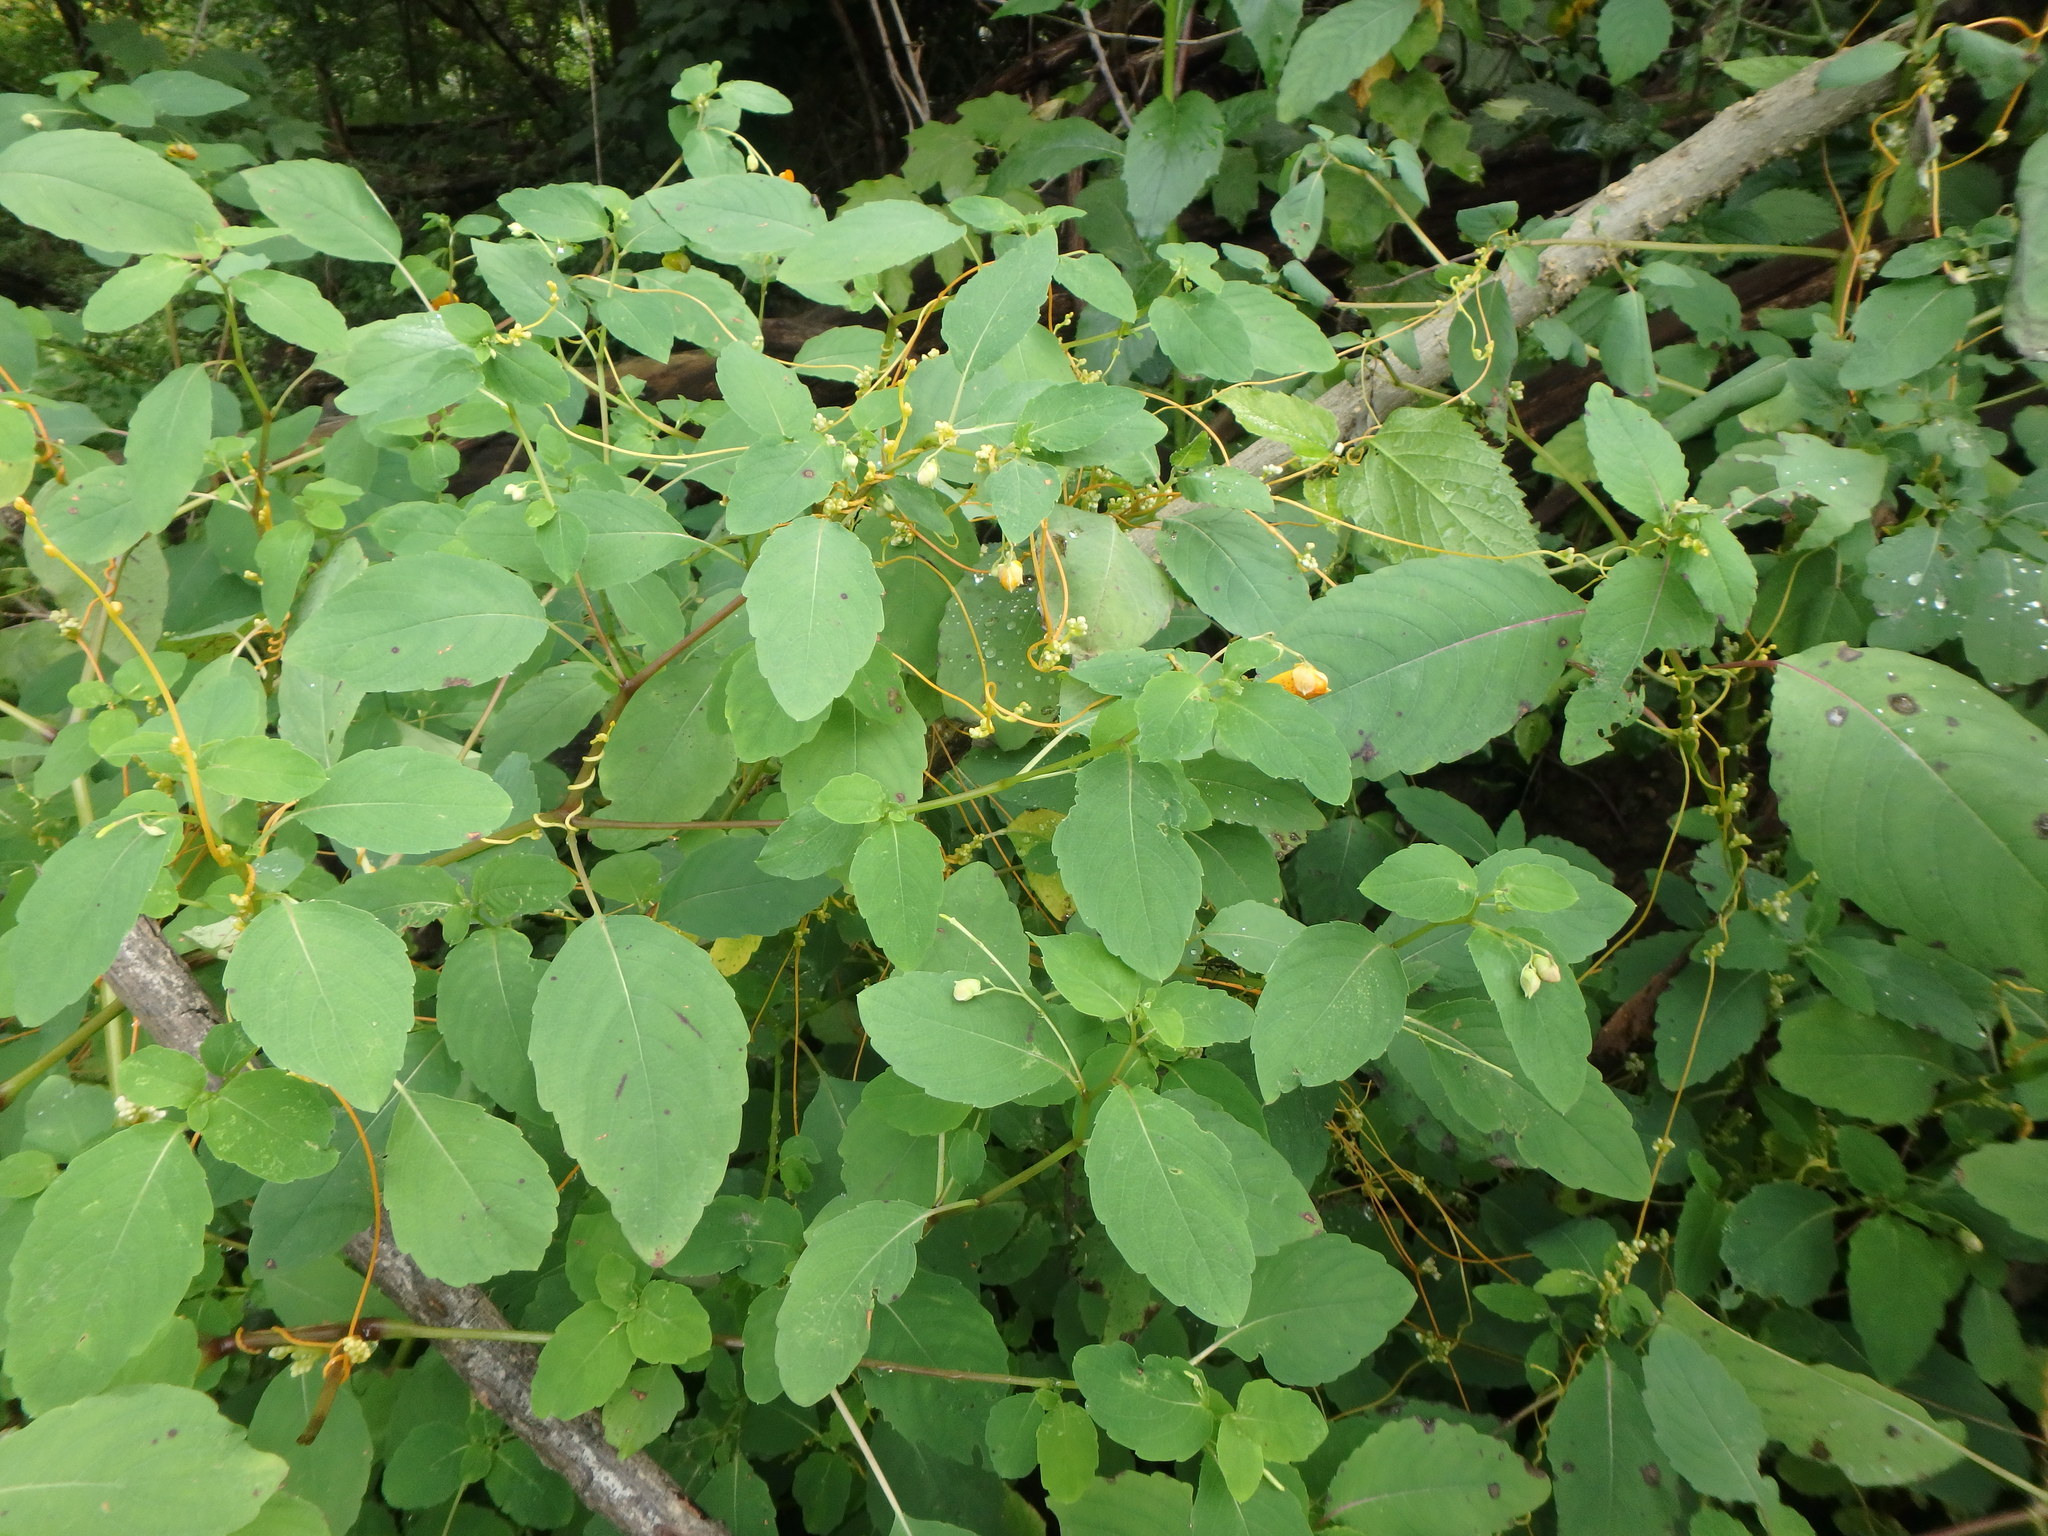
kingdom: Plantae
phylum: Tracheophyta
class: Magnoliopsida
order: Solanales
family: Convolvulaceae
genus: Cuscuta
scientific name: Cuscuta gronovii
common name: Common dodder
